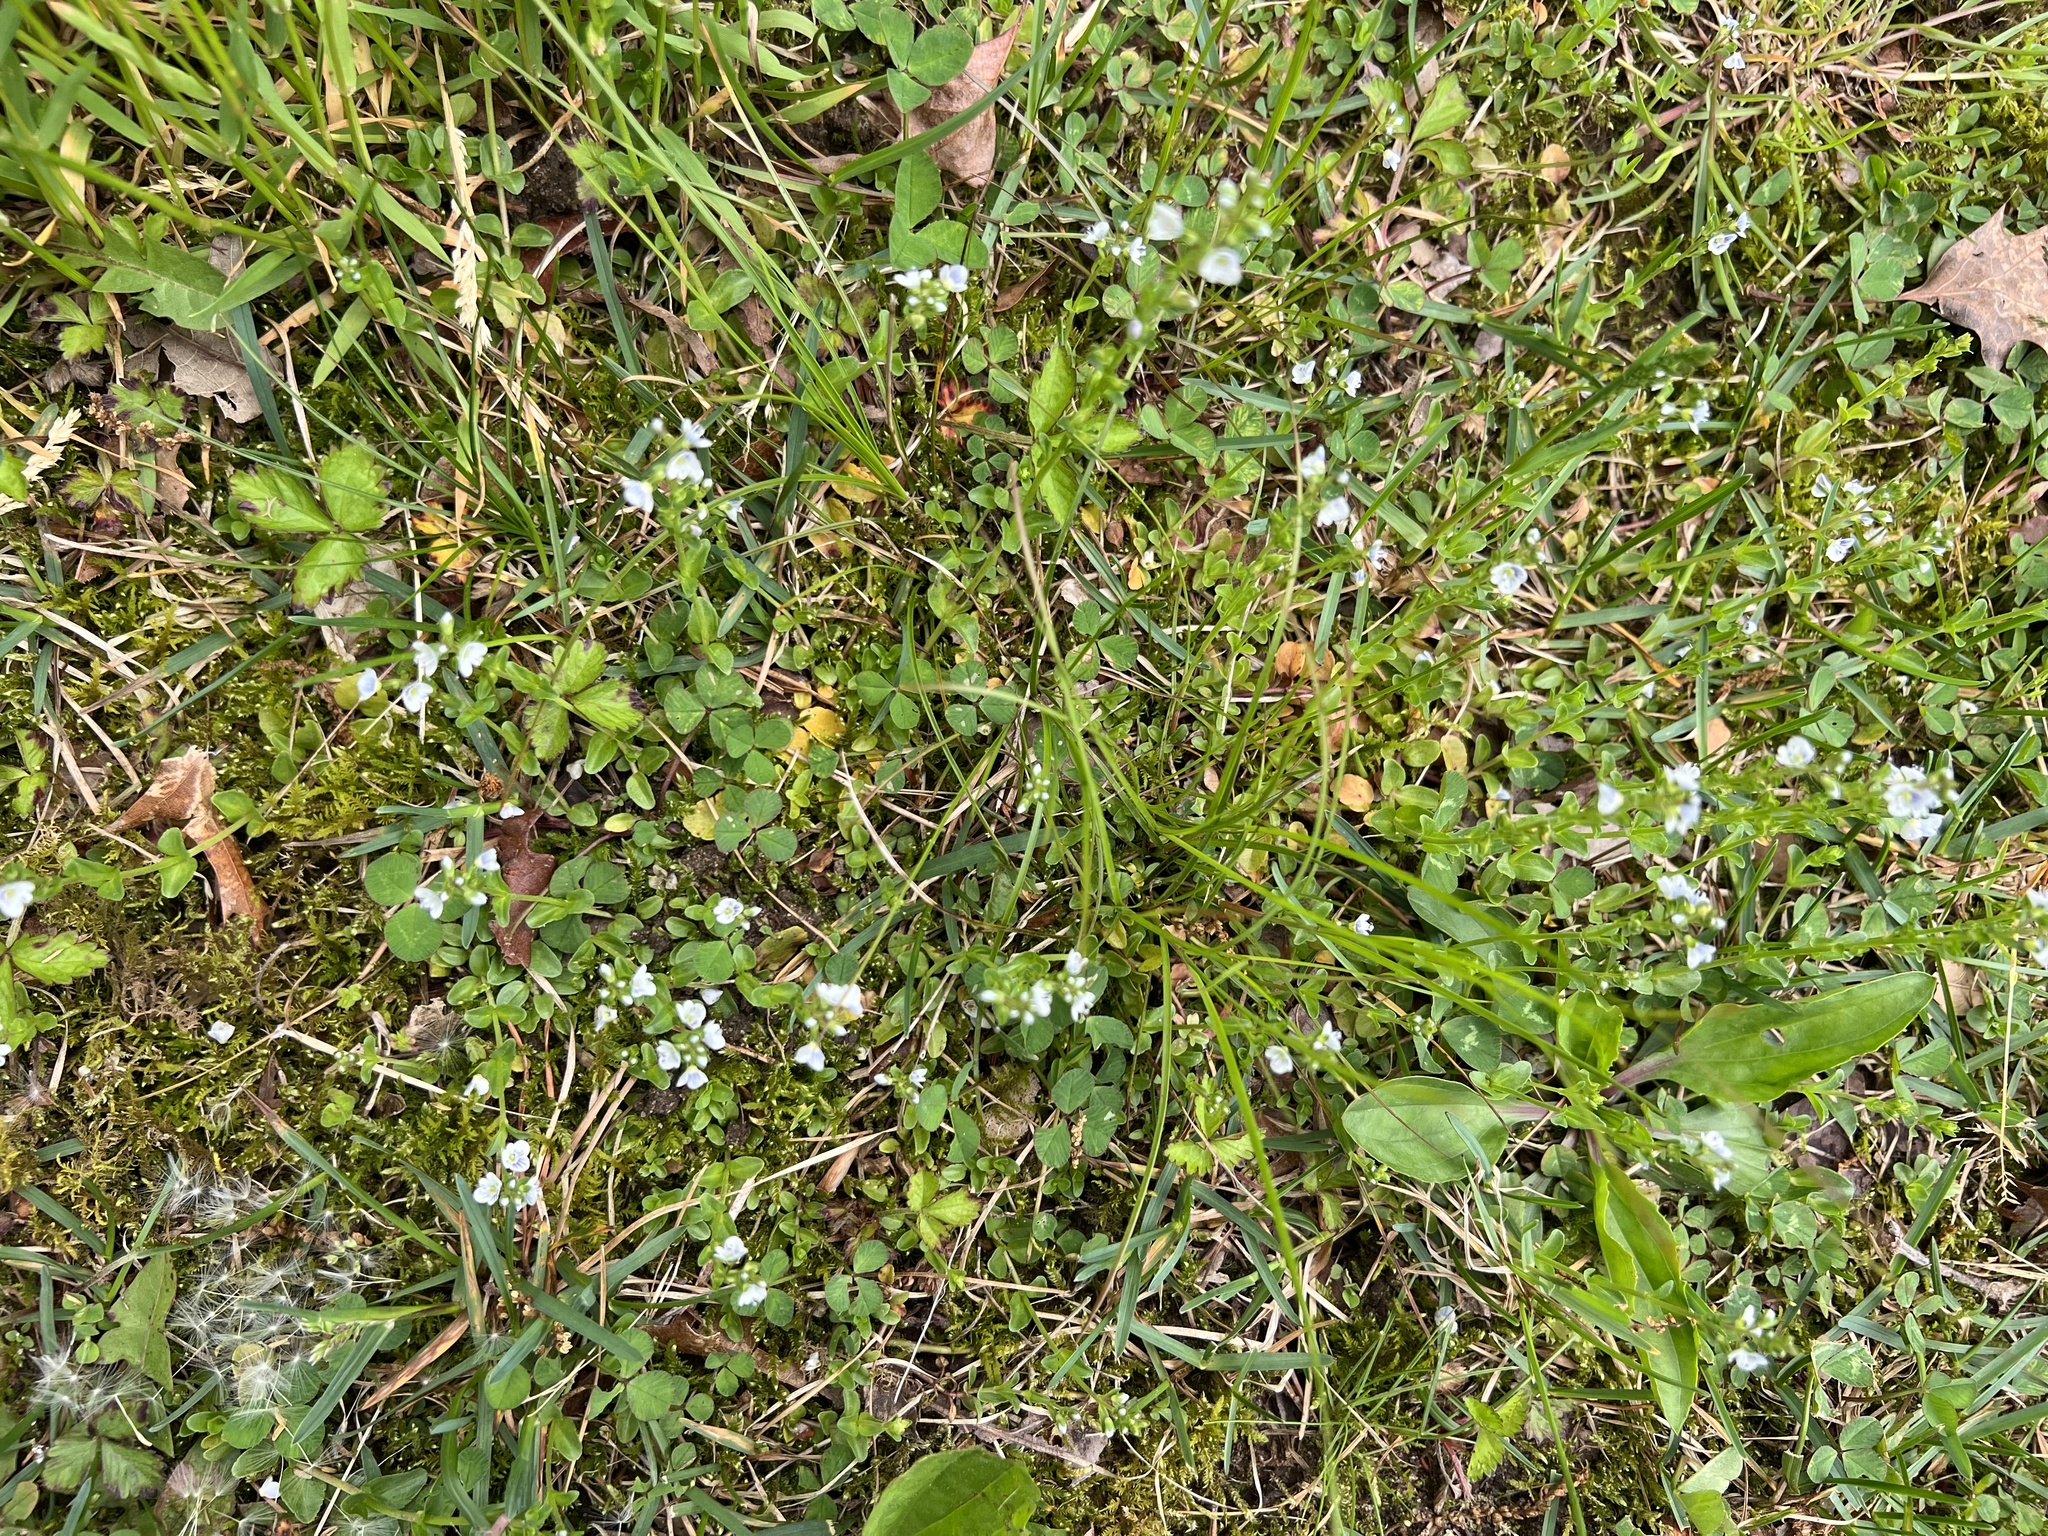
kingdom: Plantae
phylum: Tracheophyta
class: Magnoliopsida
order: Lamiales
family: Plantaginaceae
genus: Veronica
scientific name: Veronica serpyllifolia
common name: Thyme-leaved speedwell
